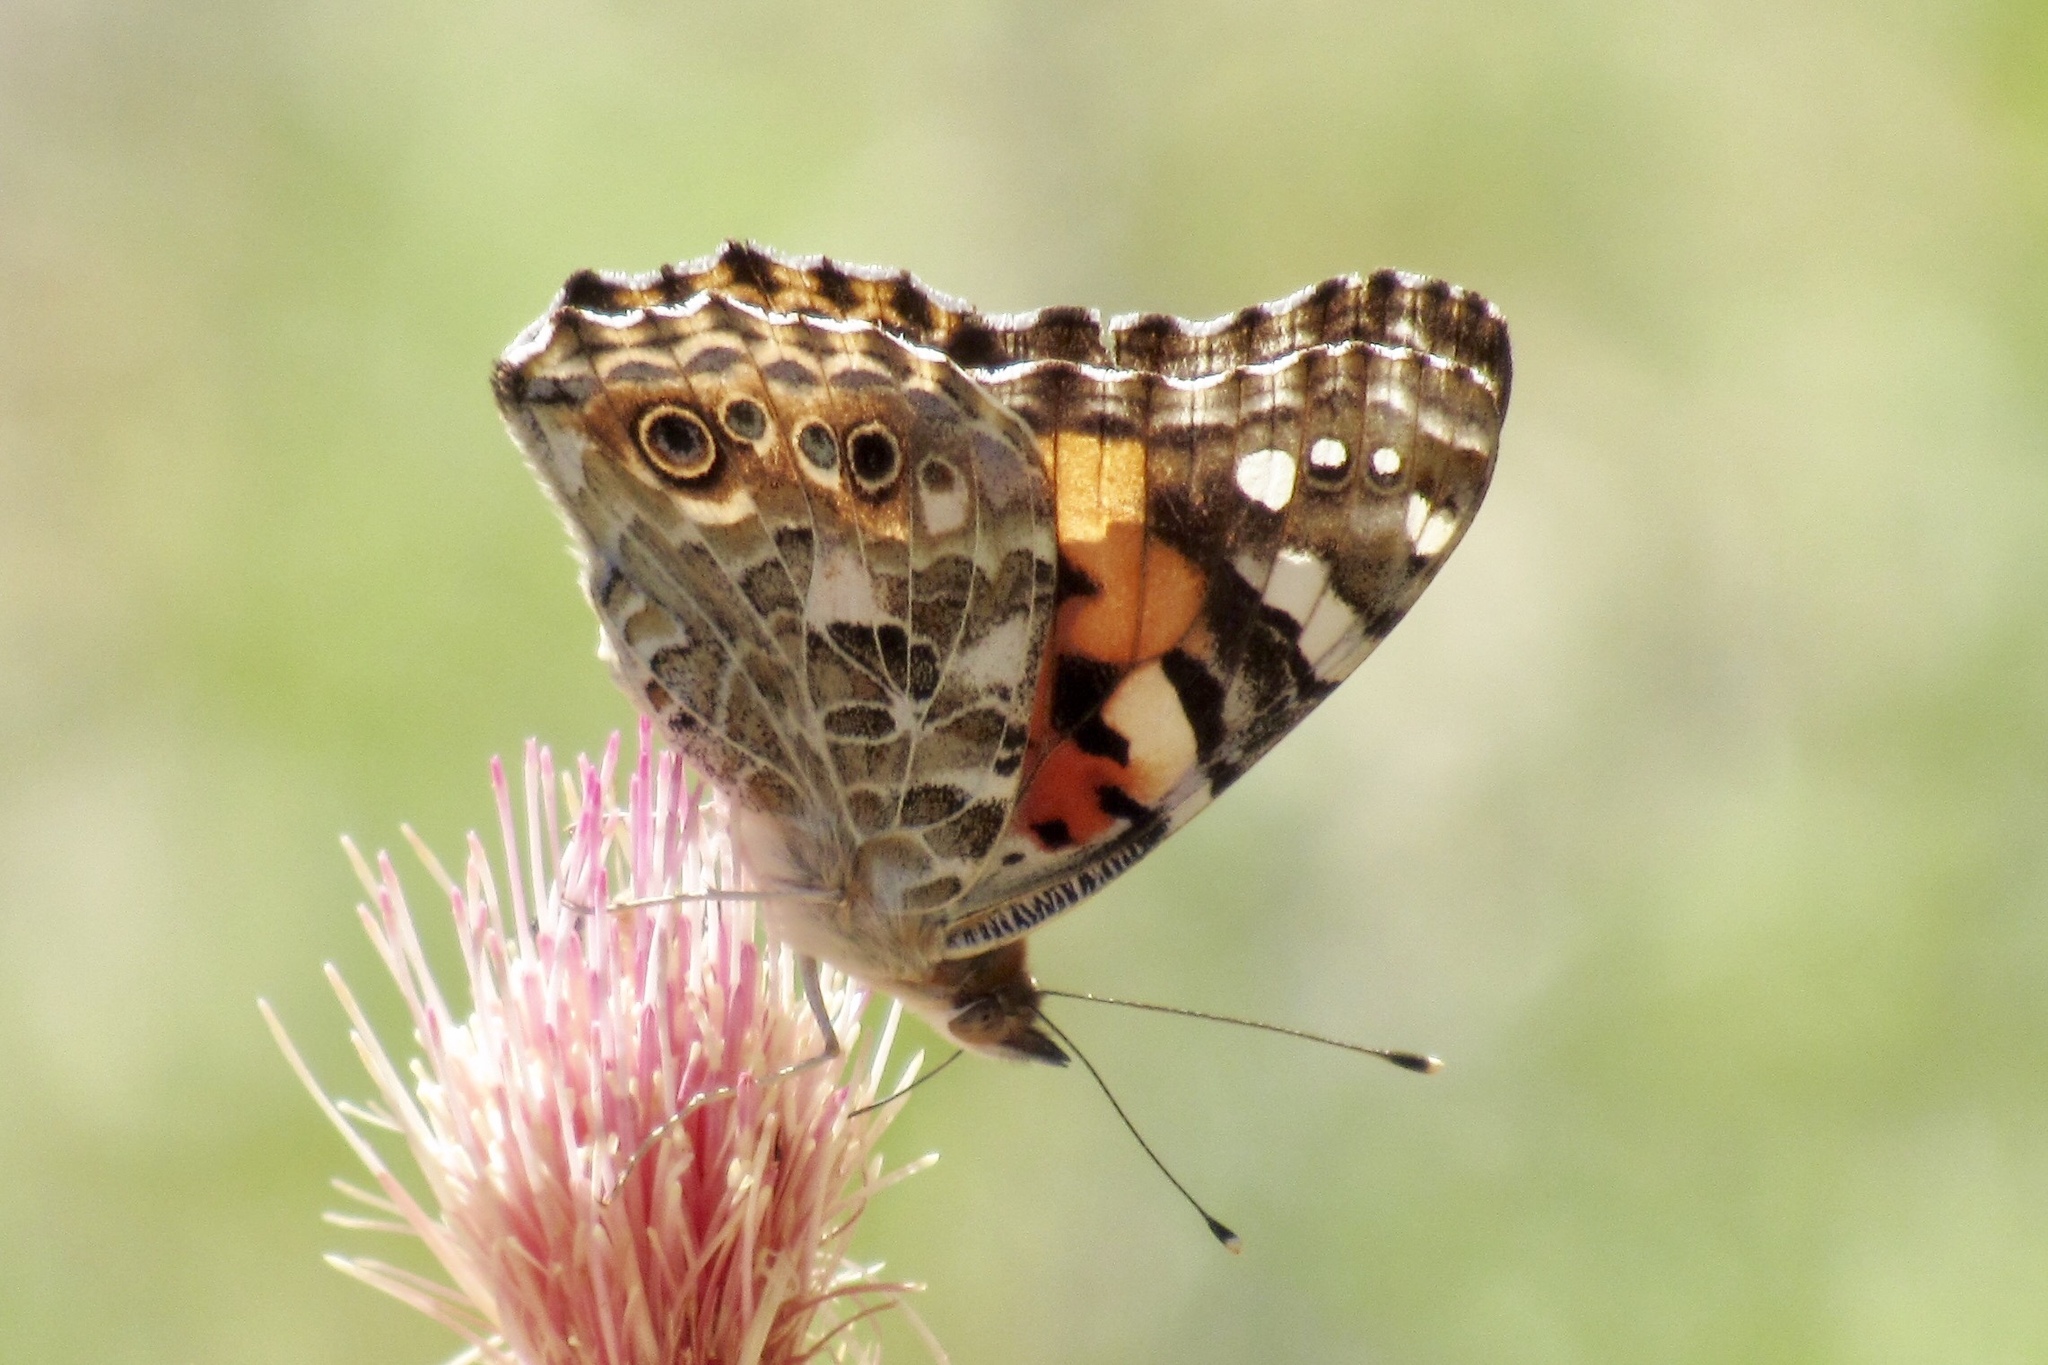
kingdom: Animalia
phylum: Arthropoda
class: Insecta
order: Lepidoptera
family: Nymphalidae
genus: Vanessa
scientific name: Vanessa cardui
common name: Painted lady
